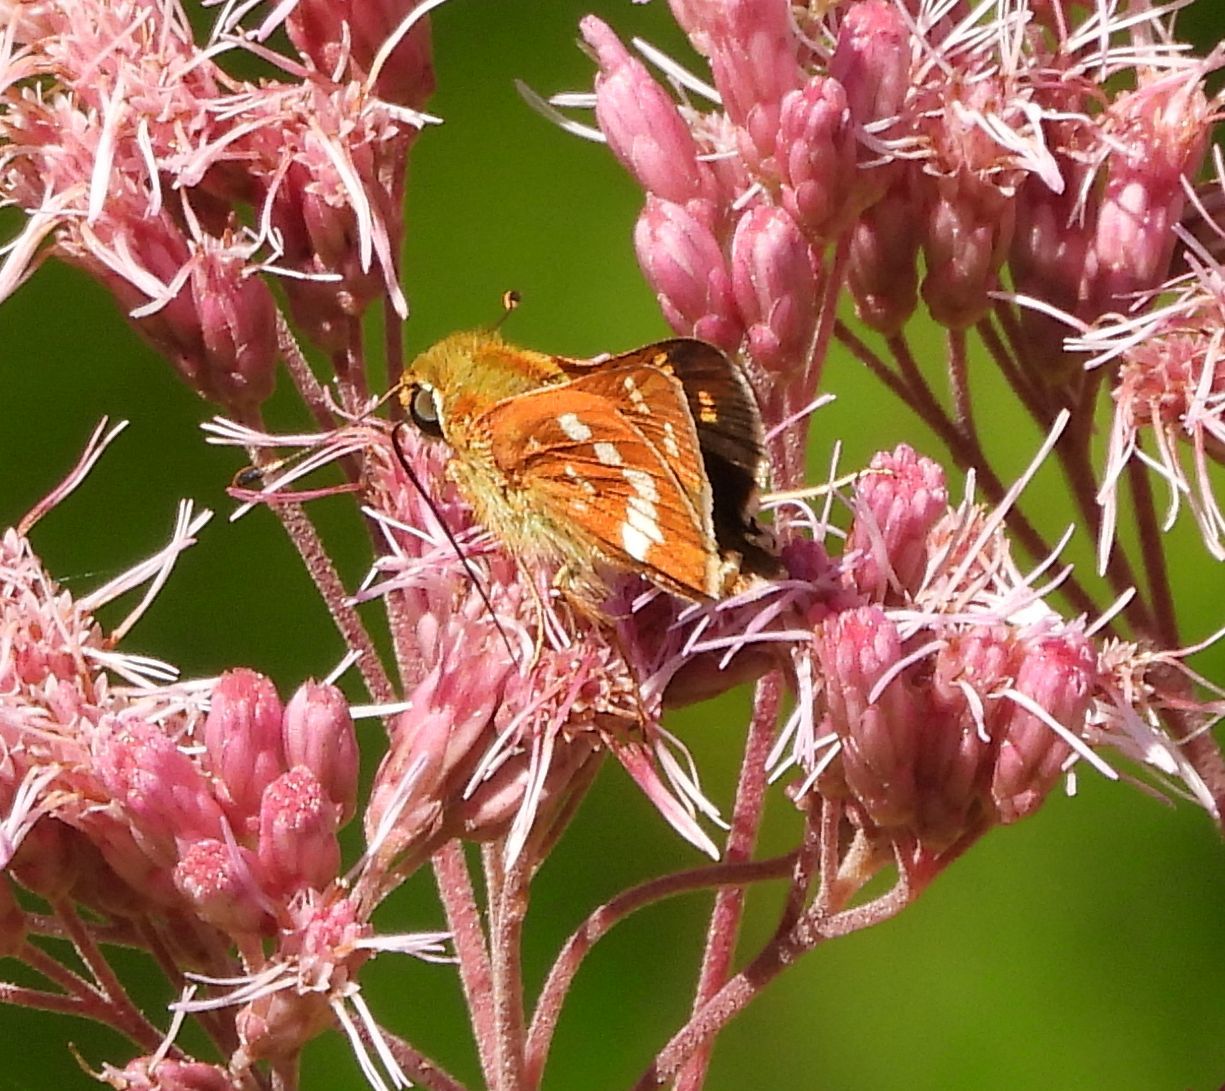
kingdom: Animalia
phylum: Arthropoda
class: Insecta
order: Lepidoptera
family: Hesperiidae
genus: Hesperia
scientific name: Hesperia leonardus
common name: Leonard's skipper
